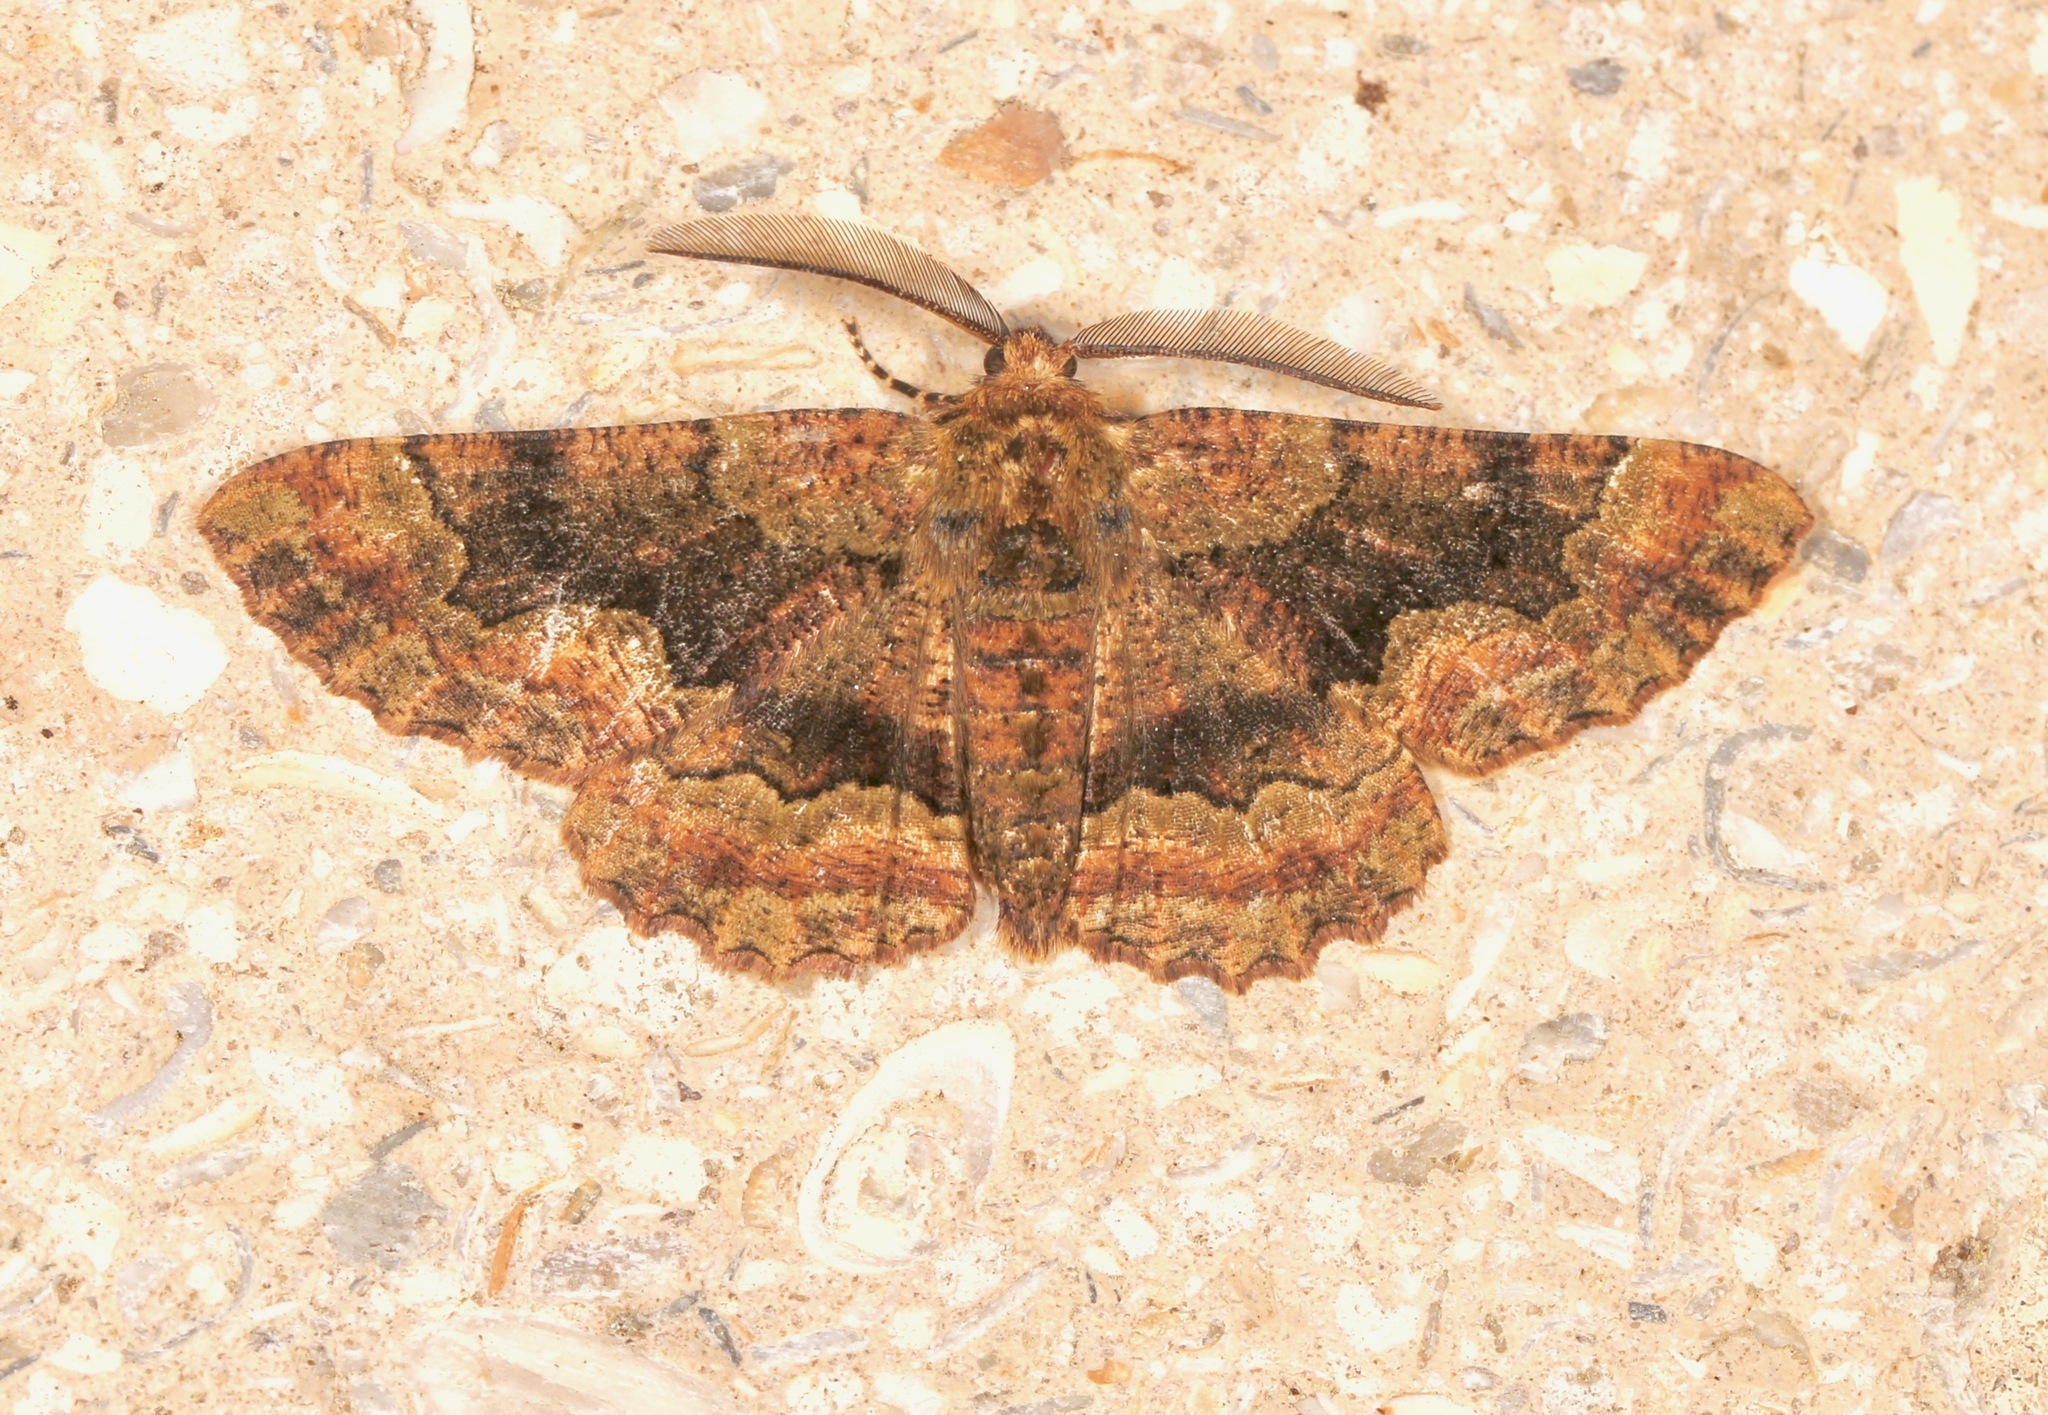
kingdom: Animalia
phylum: Arthropoda
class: Insecta
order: Lepidoptera
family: Geometridae
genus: Phaeoura
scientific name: Phaeoura quernaria
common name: Oak beauty
